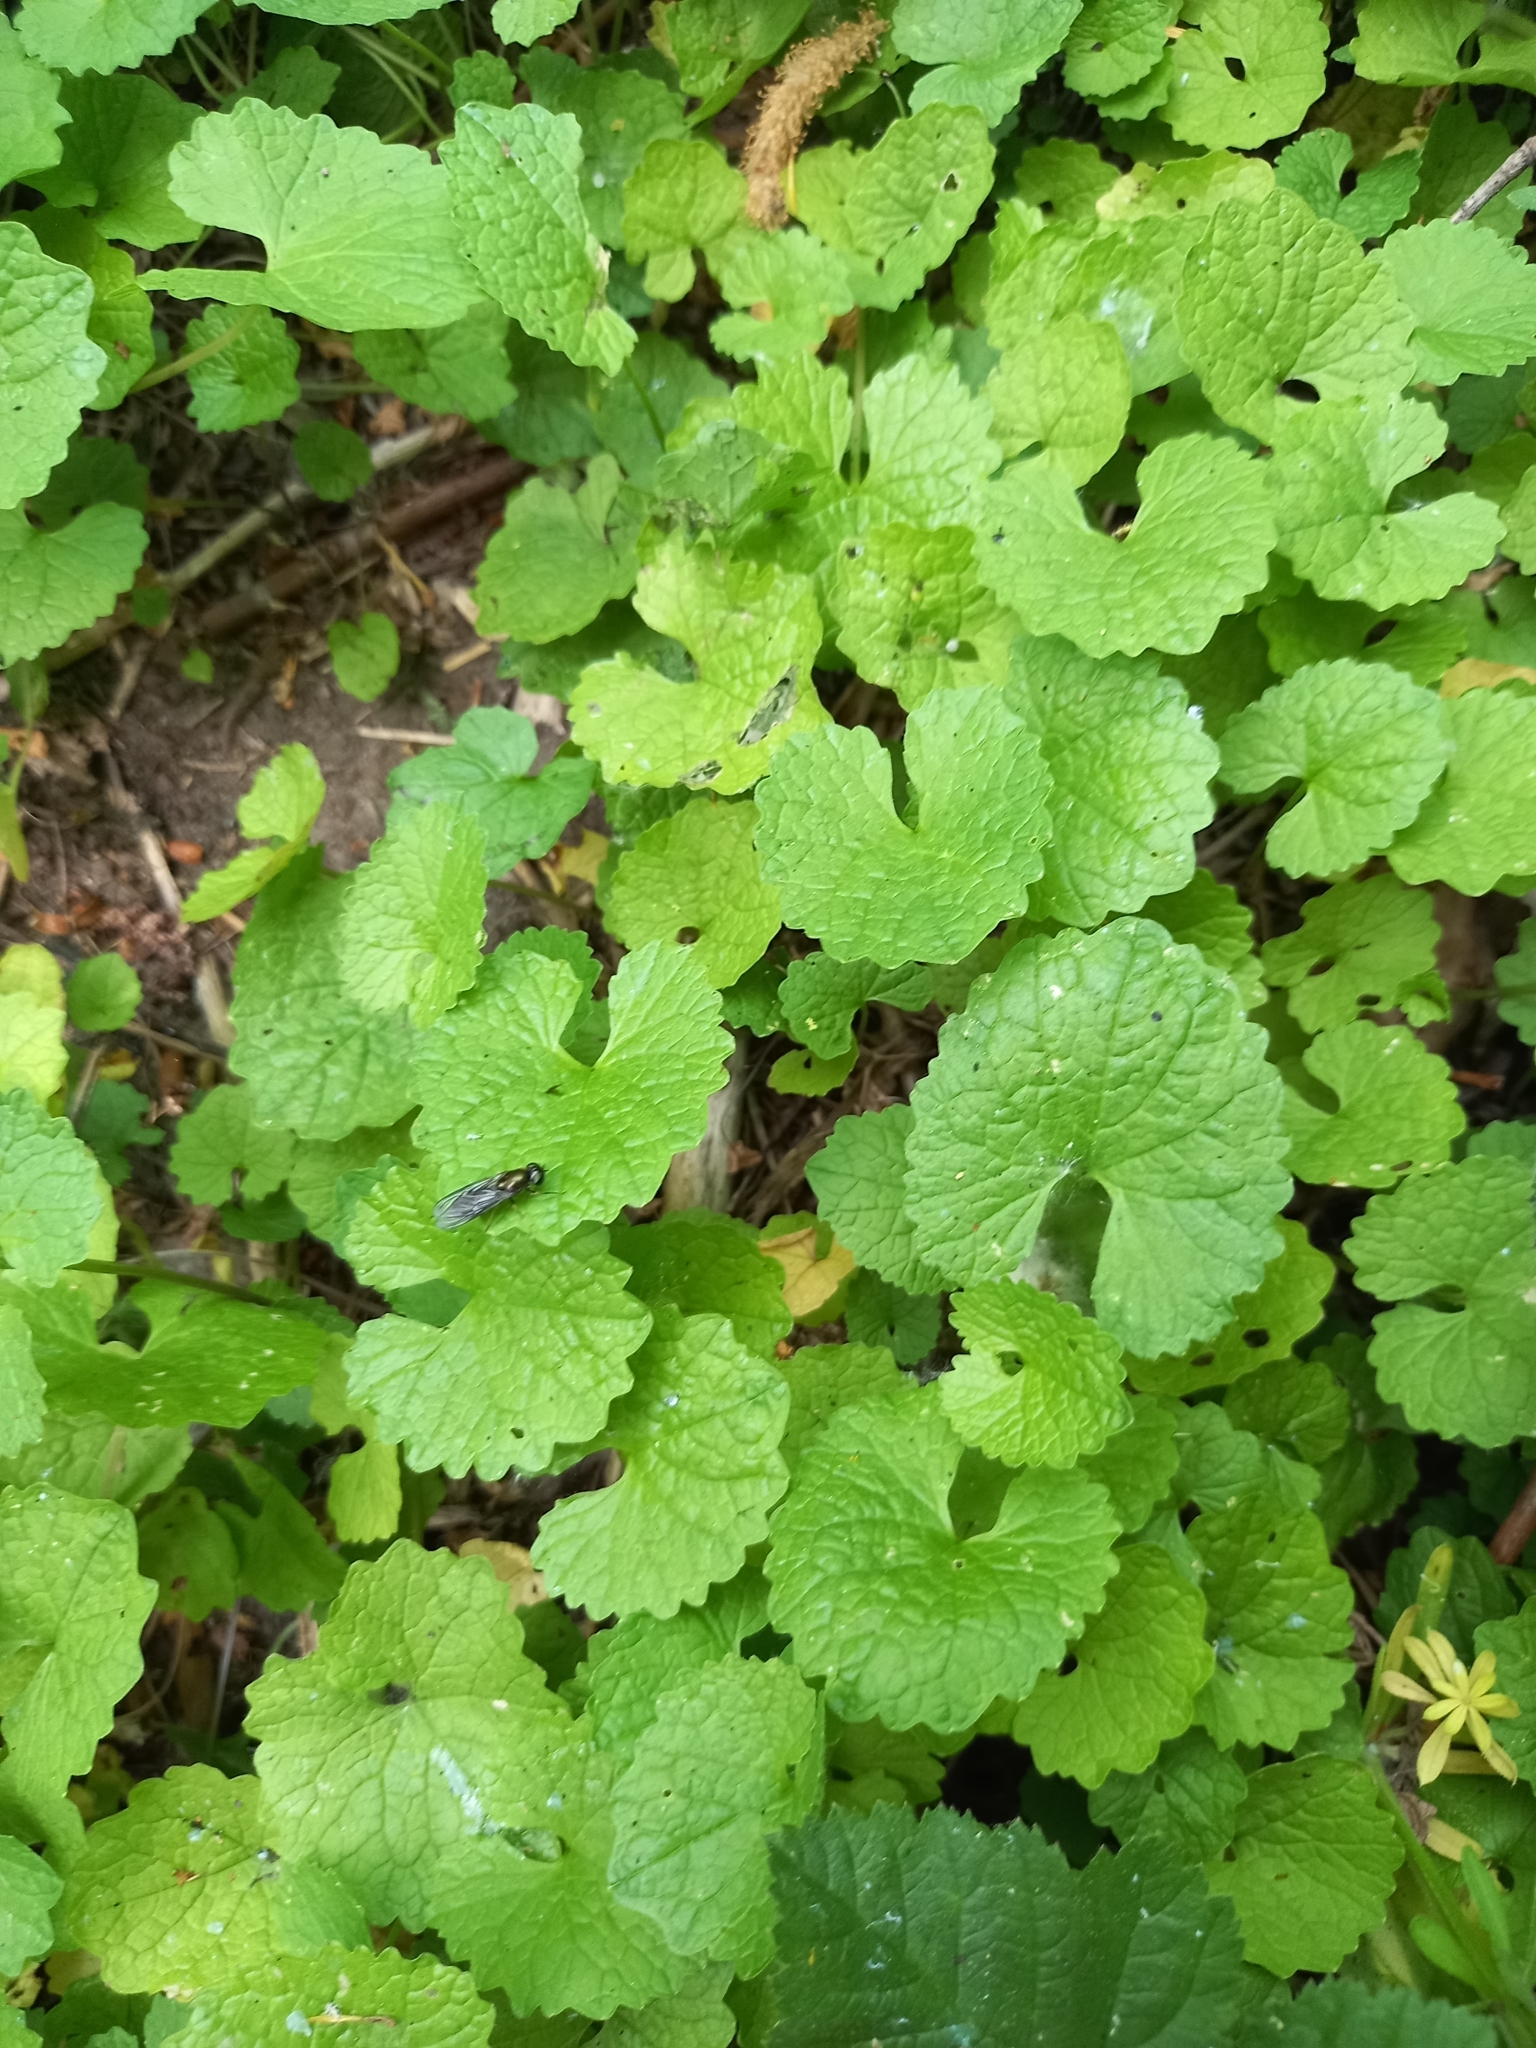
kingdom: Plantae
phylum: Tracheophyta
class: Magnoliopsida
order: Brassicales
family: Brassicaceae
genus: Alliaria
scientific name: Alliaria petiolata
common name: Garlic mustard
